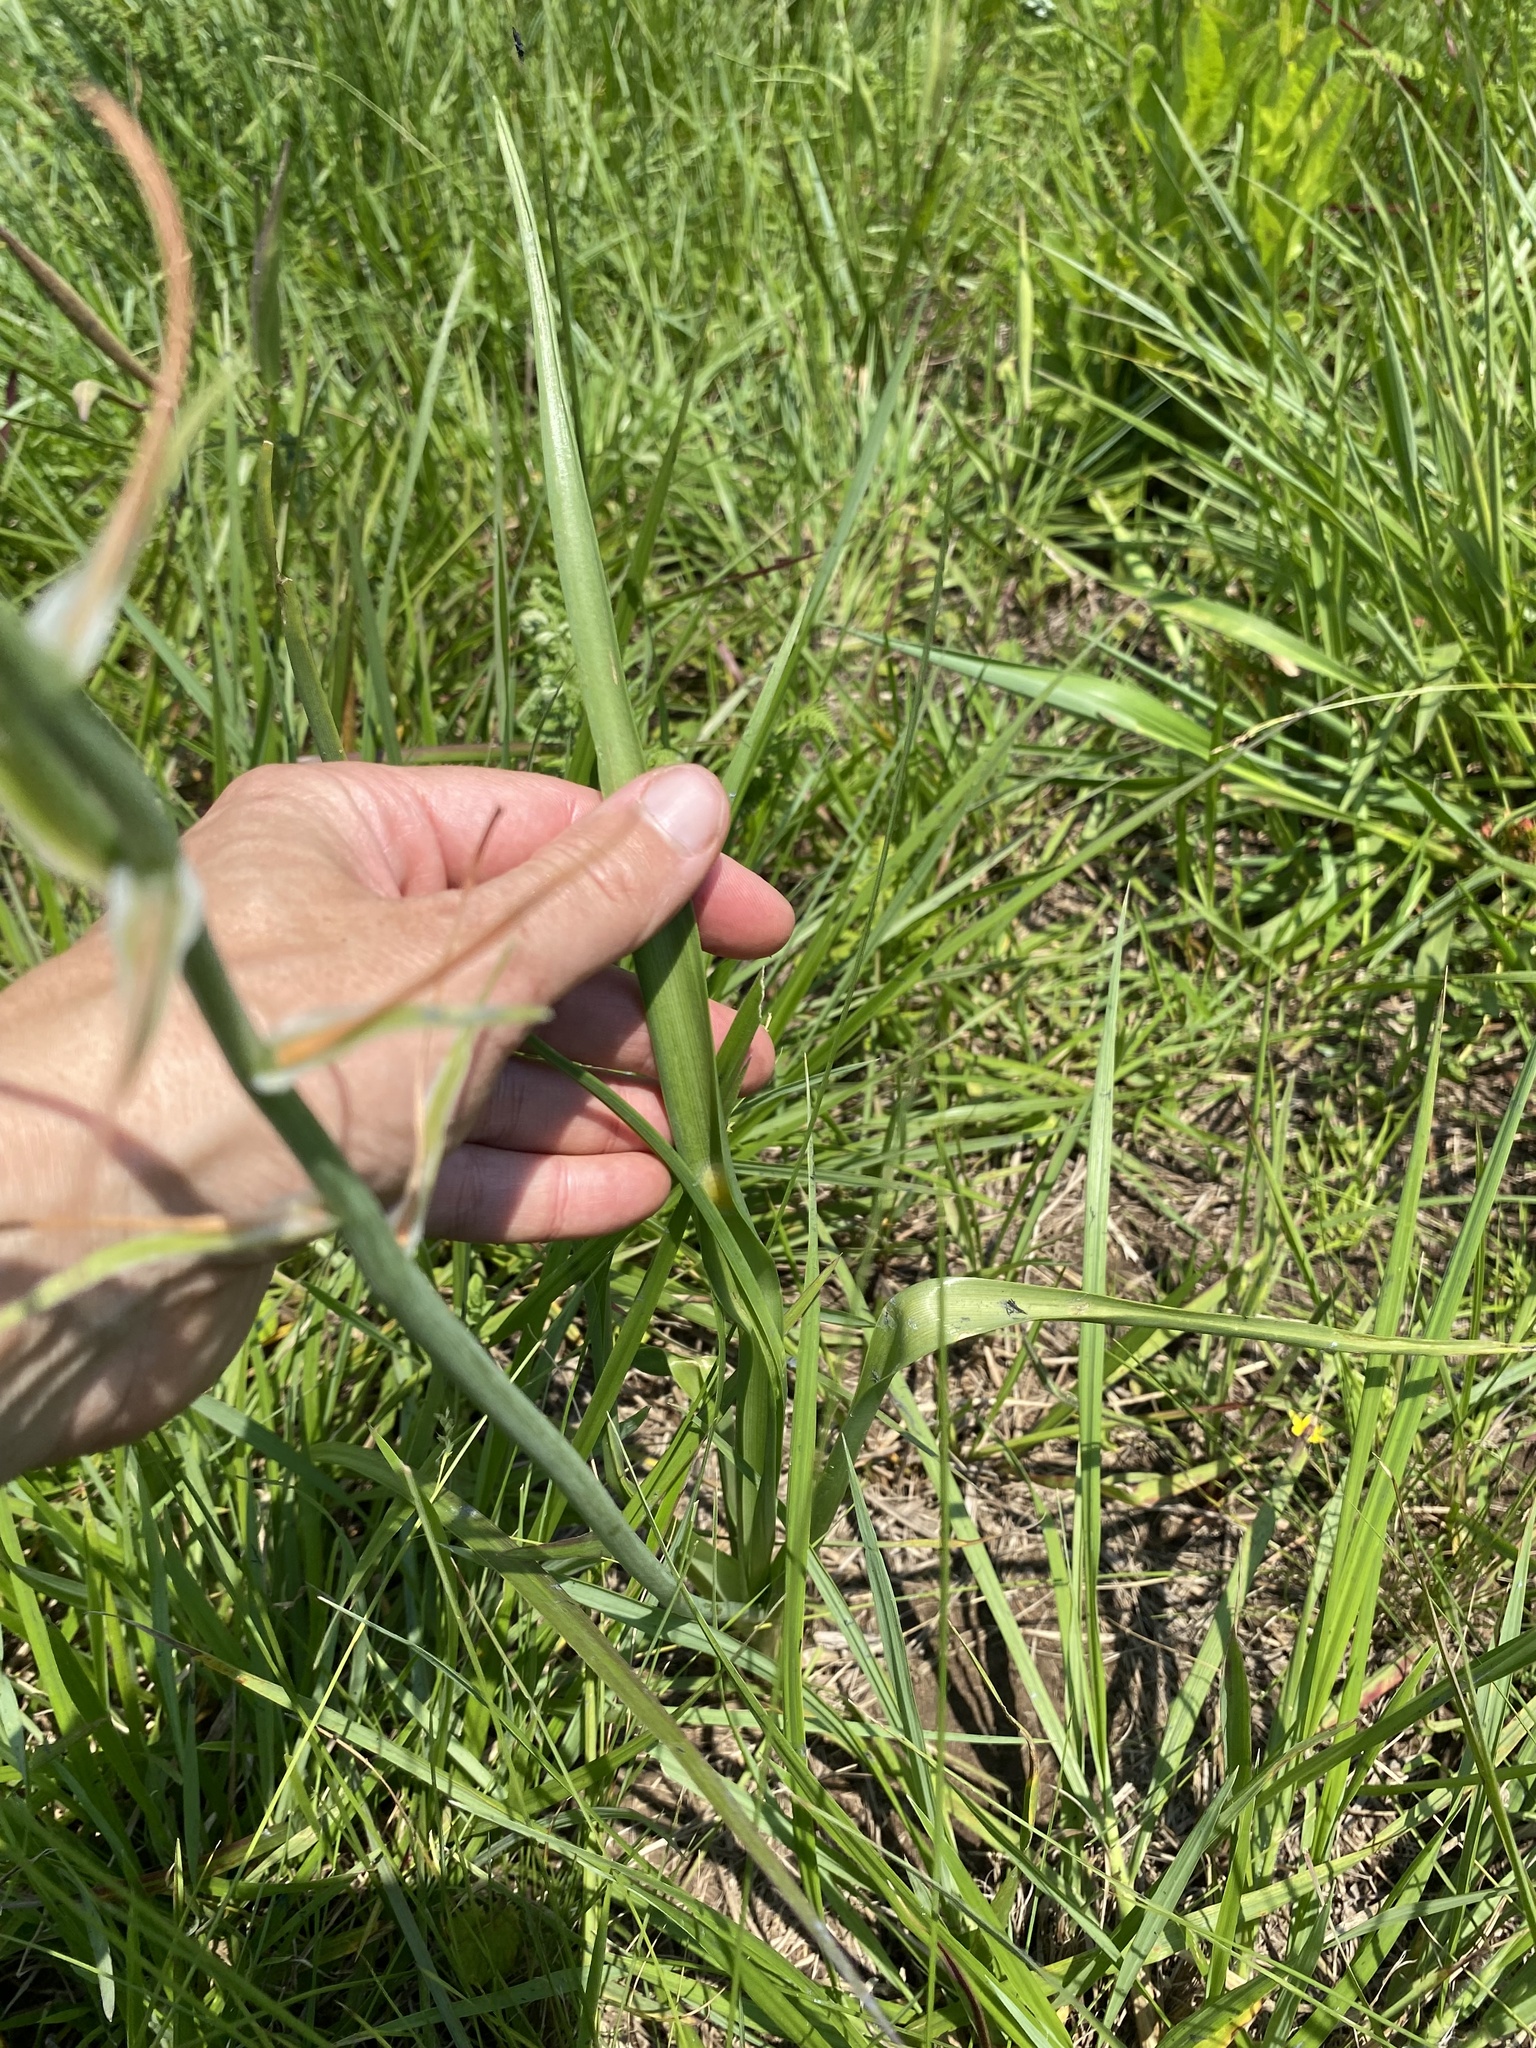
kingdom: Plantae
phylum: Tracheophyta
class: Liliopsida
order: Asparagales
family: Asparagaceae
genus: Albuca
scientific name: Albuca setosa
